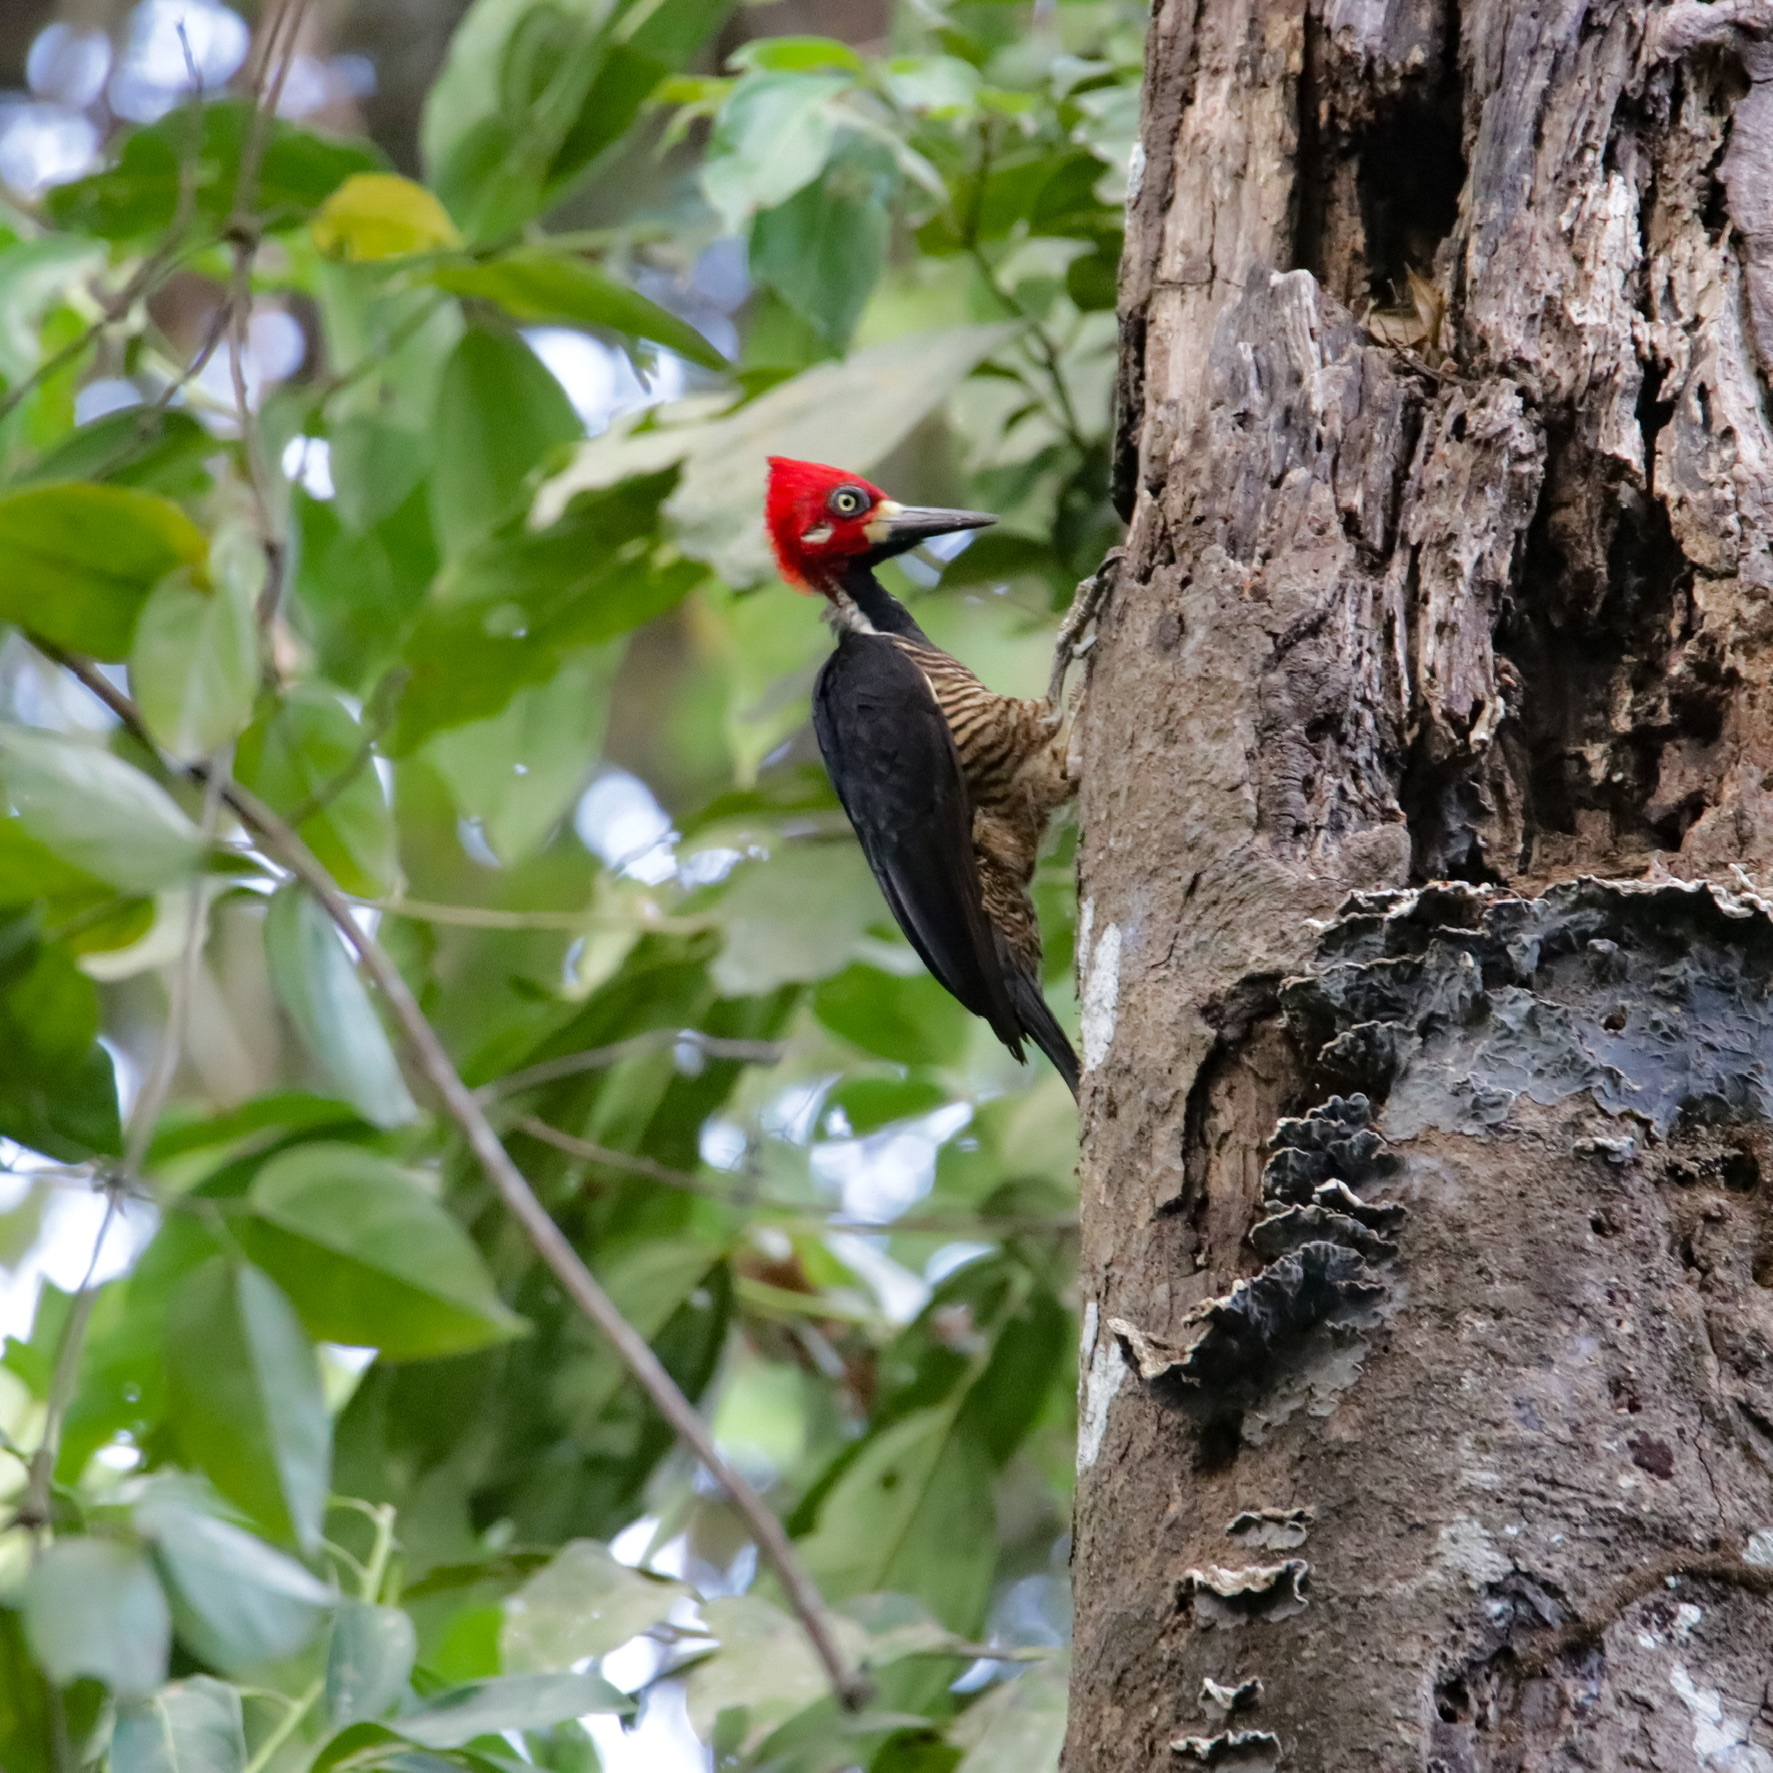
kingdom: Animalia
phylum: Chordata
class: Aves
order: Piciformes
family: Picidae
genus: Campephilus
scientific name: Campephilus melanoleucos
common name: Crimson-crested woodpecker
